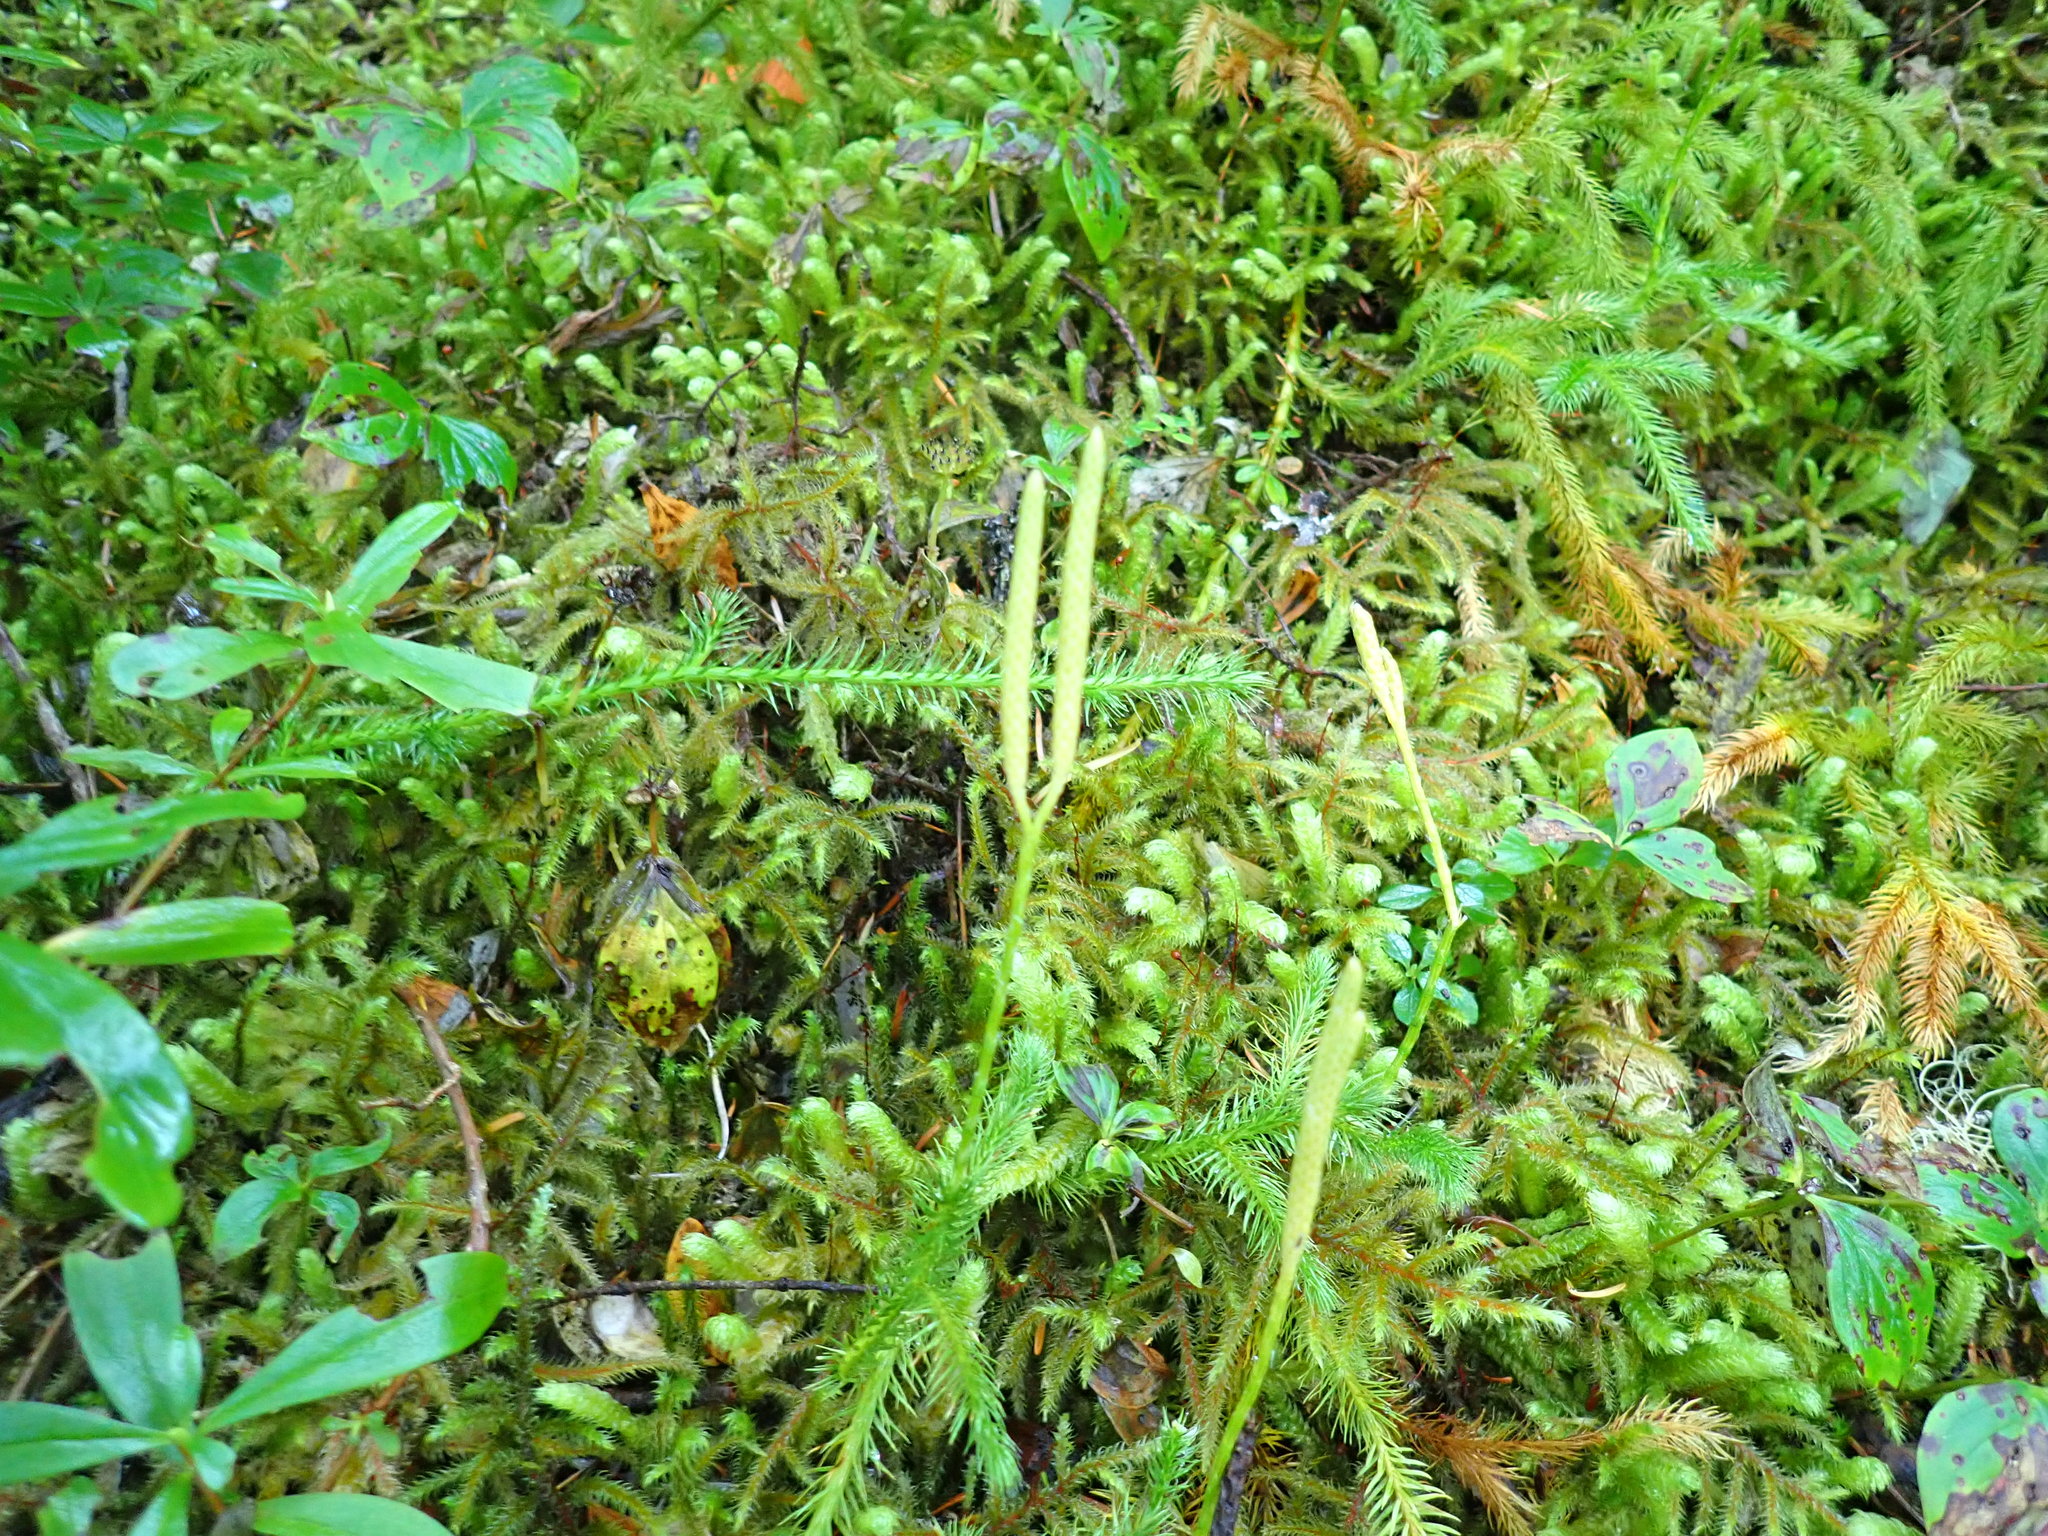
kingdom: Plantae
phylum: Tracheophyta
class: Lycopodiopsida
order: Lycopodiales
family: Lycopodiaceae
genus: Lycopodium
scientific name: Lycopodium clavatum
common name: Stag's-horn clubmoss
